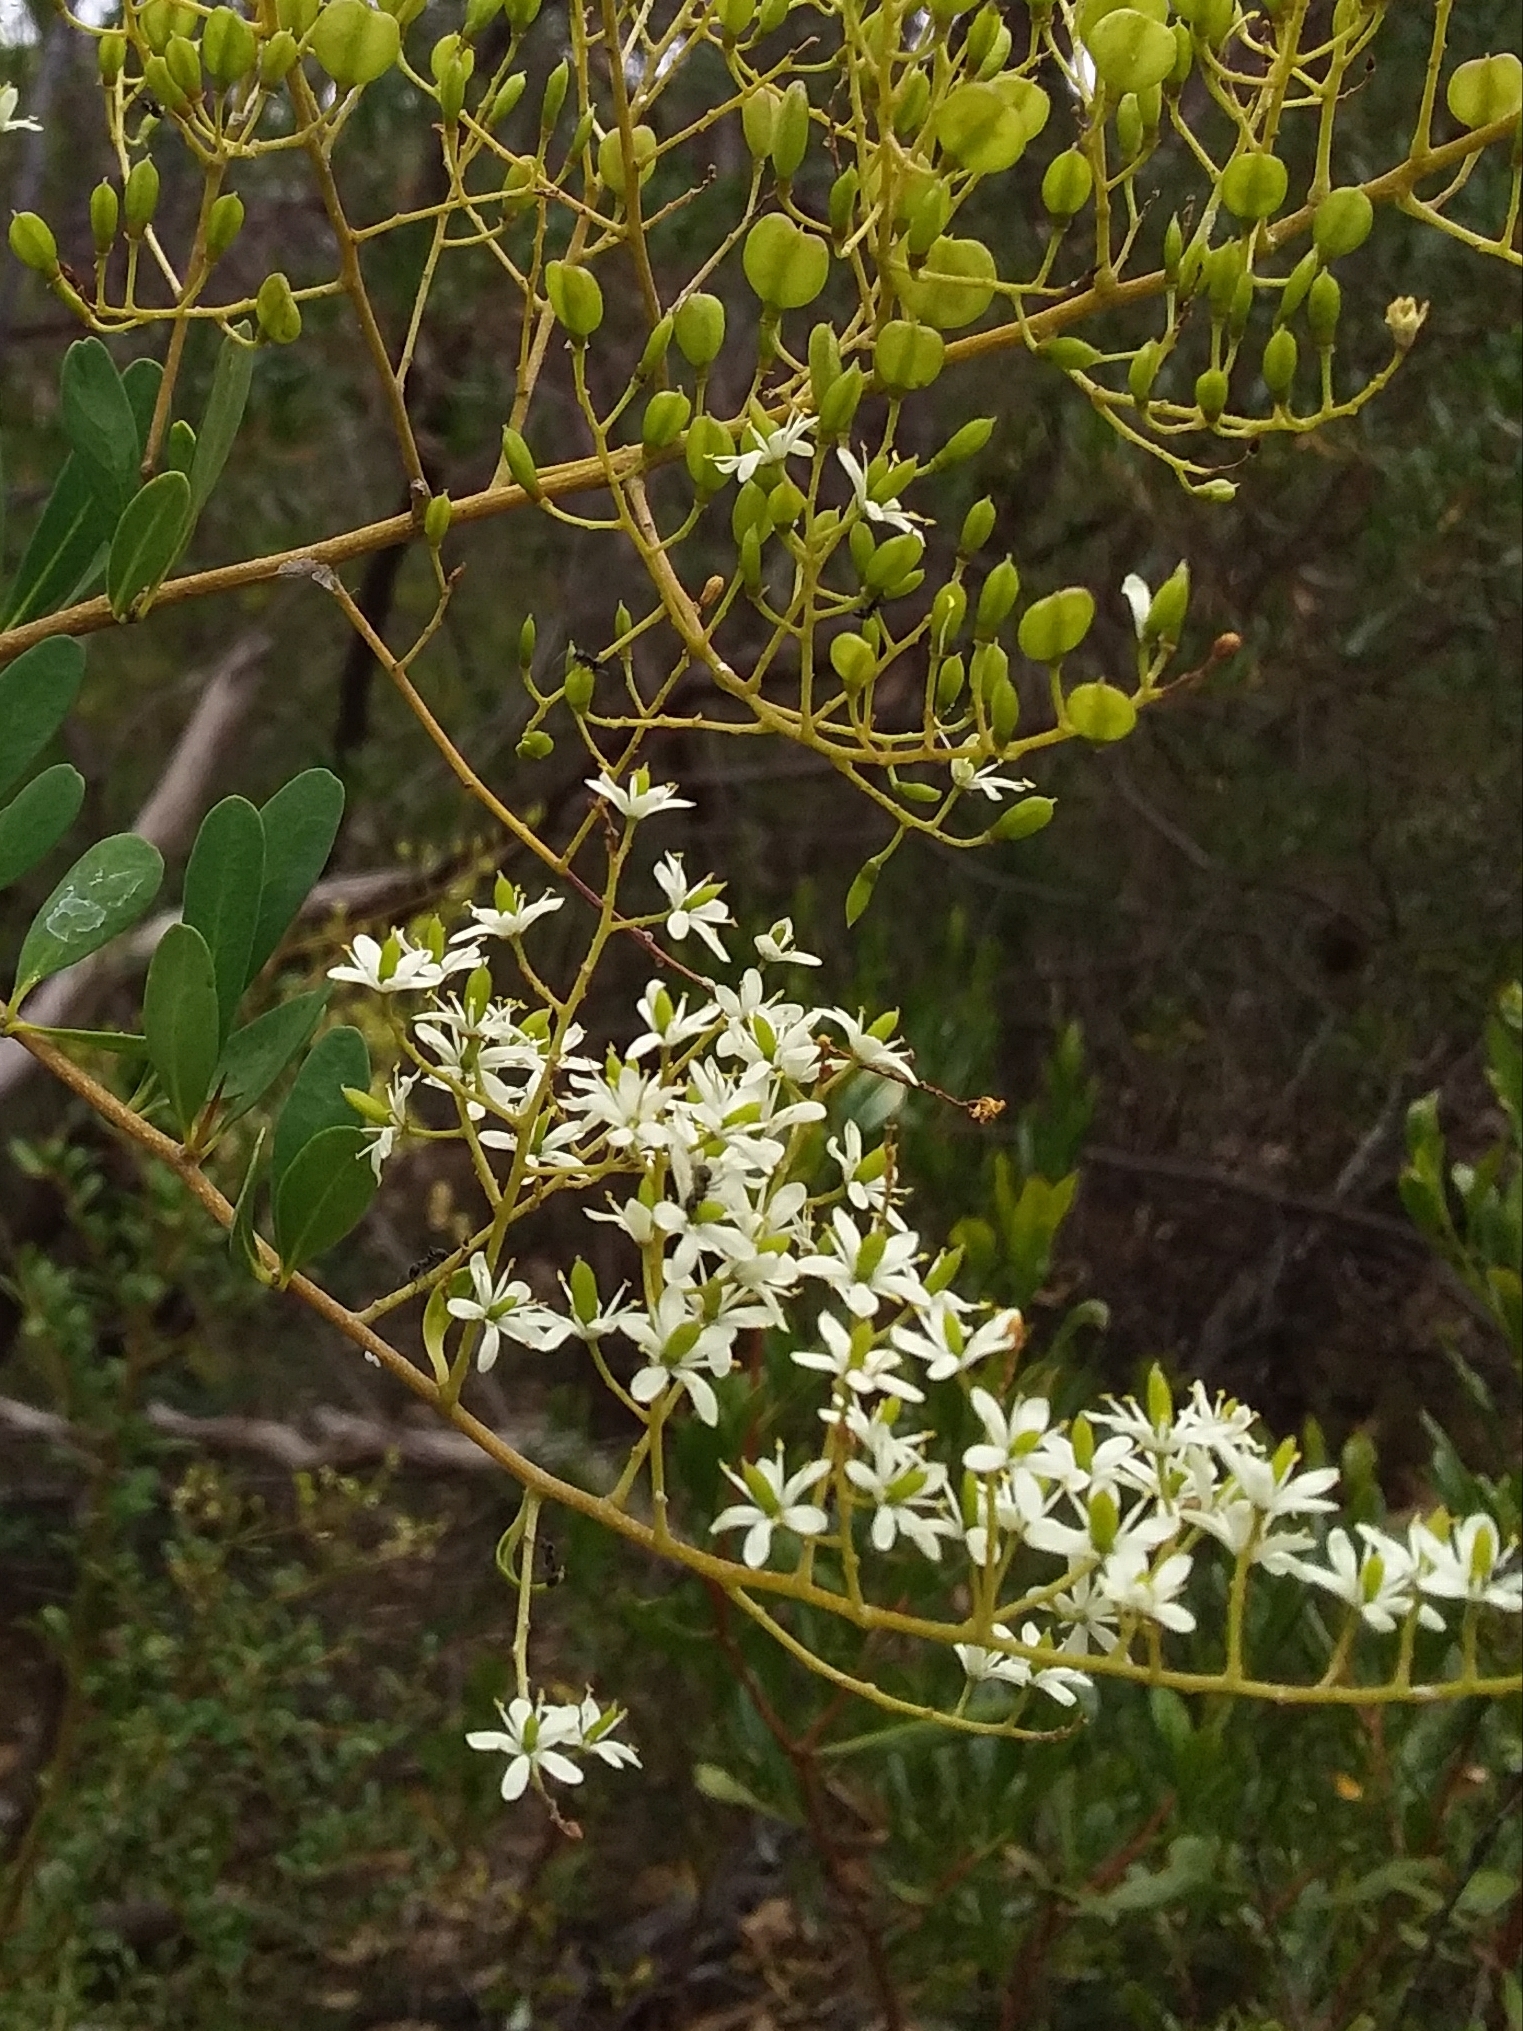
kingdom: Plantae
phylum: Tracheophyta
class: Magnoliopsida
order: Apiales
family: Pittosporaceae
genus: Bursaria
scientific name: Bursaria spinosa
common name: Australian blackthorn
